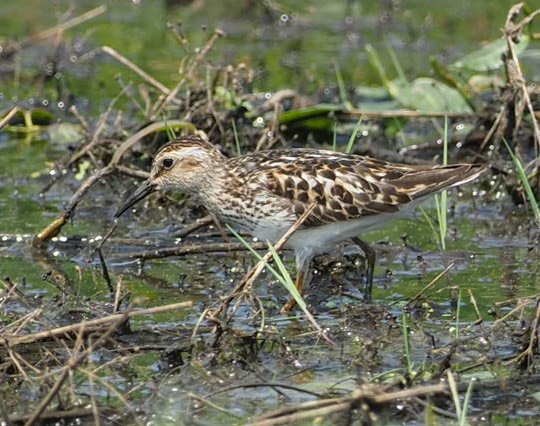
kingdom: Animalia
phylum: Chordata
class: Aves
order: Charadriiformes
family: Scolopacidae
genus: Calidris
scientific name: Calidris minutilla
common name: Least sandpiper
